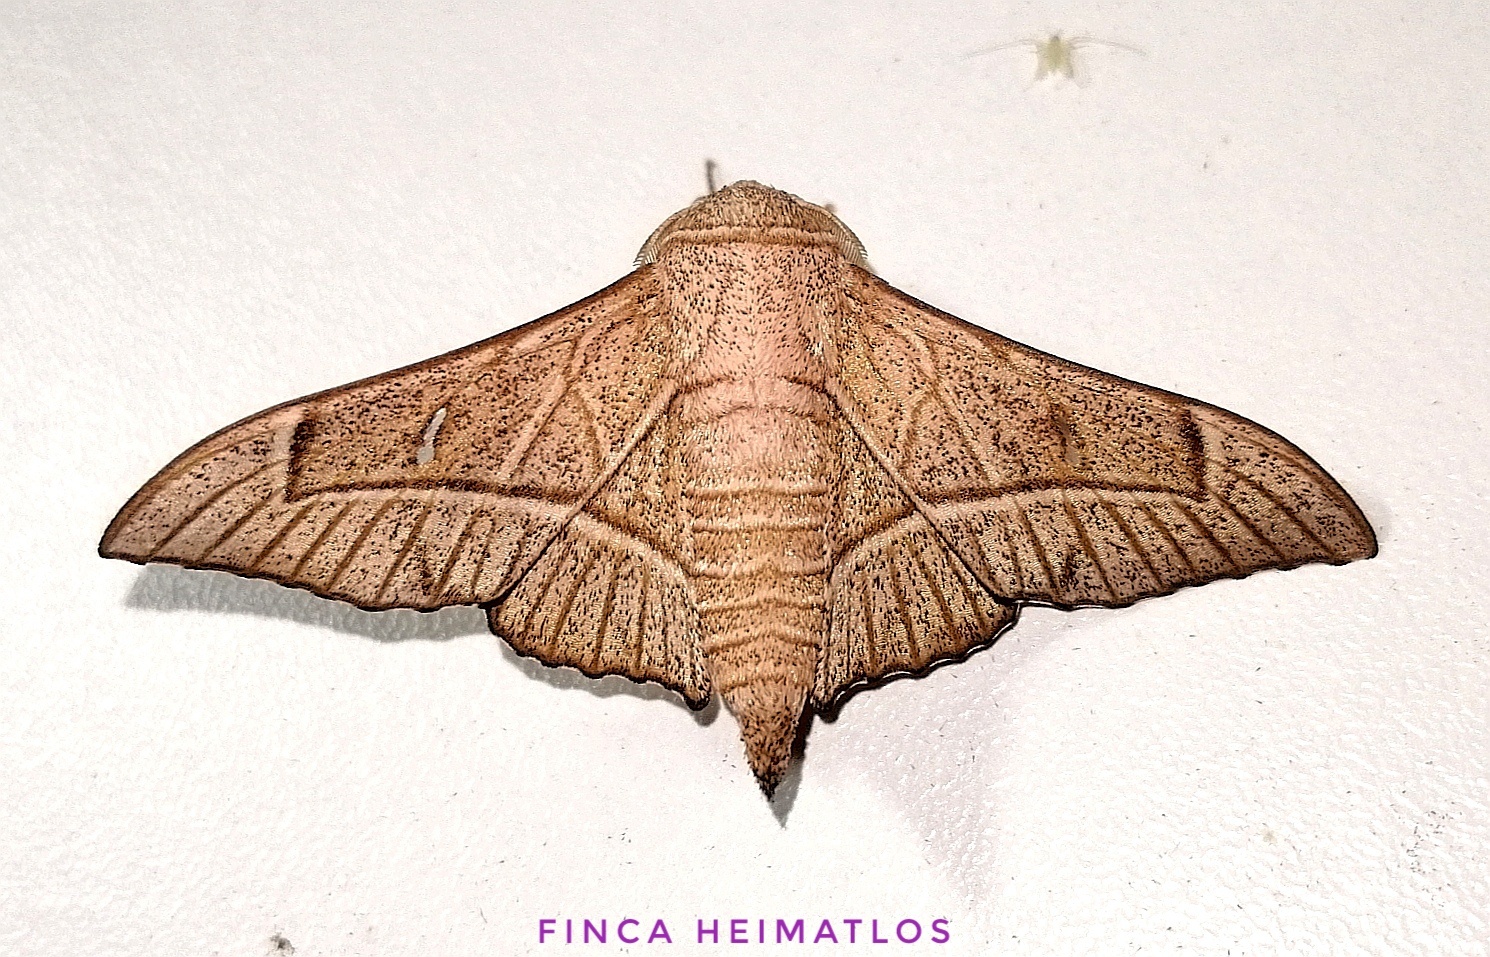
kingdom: Animalia
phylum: Arthropoda
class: Insecta
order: Lepidoptera
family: Mimallonidae
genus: Bedosia
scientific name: Bedosia trailii
